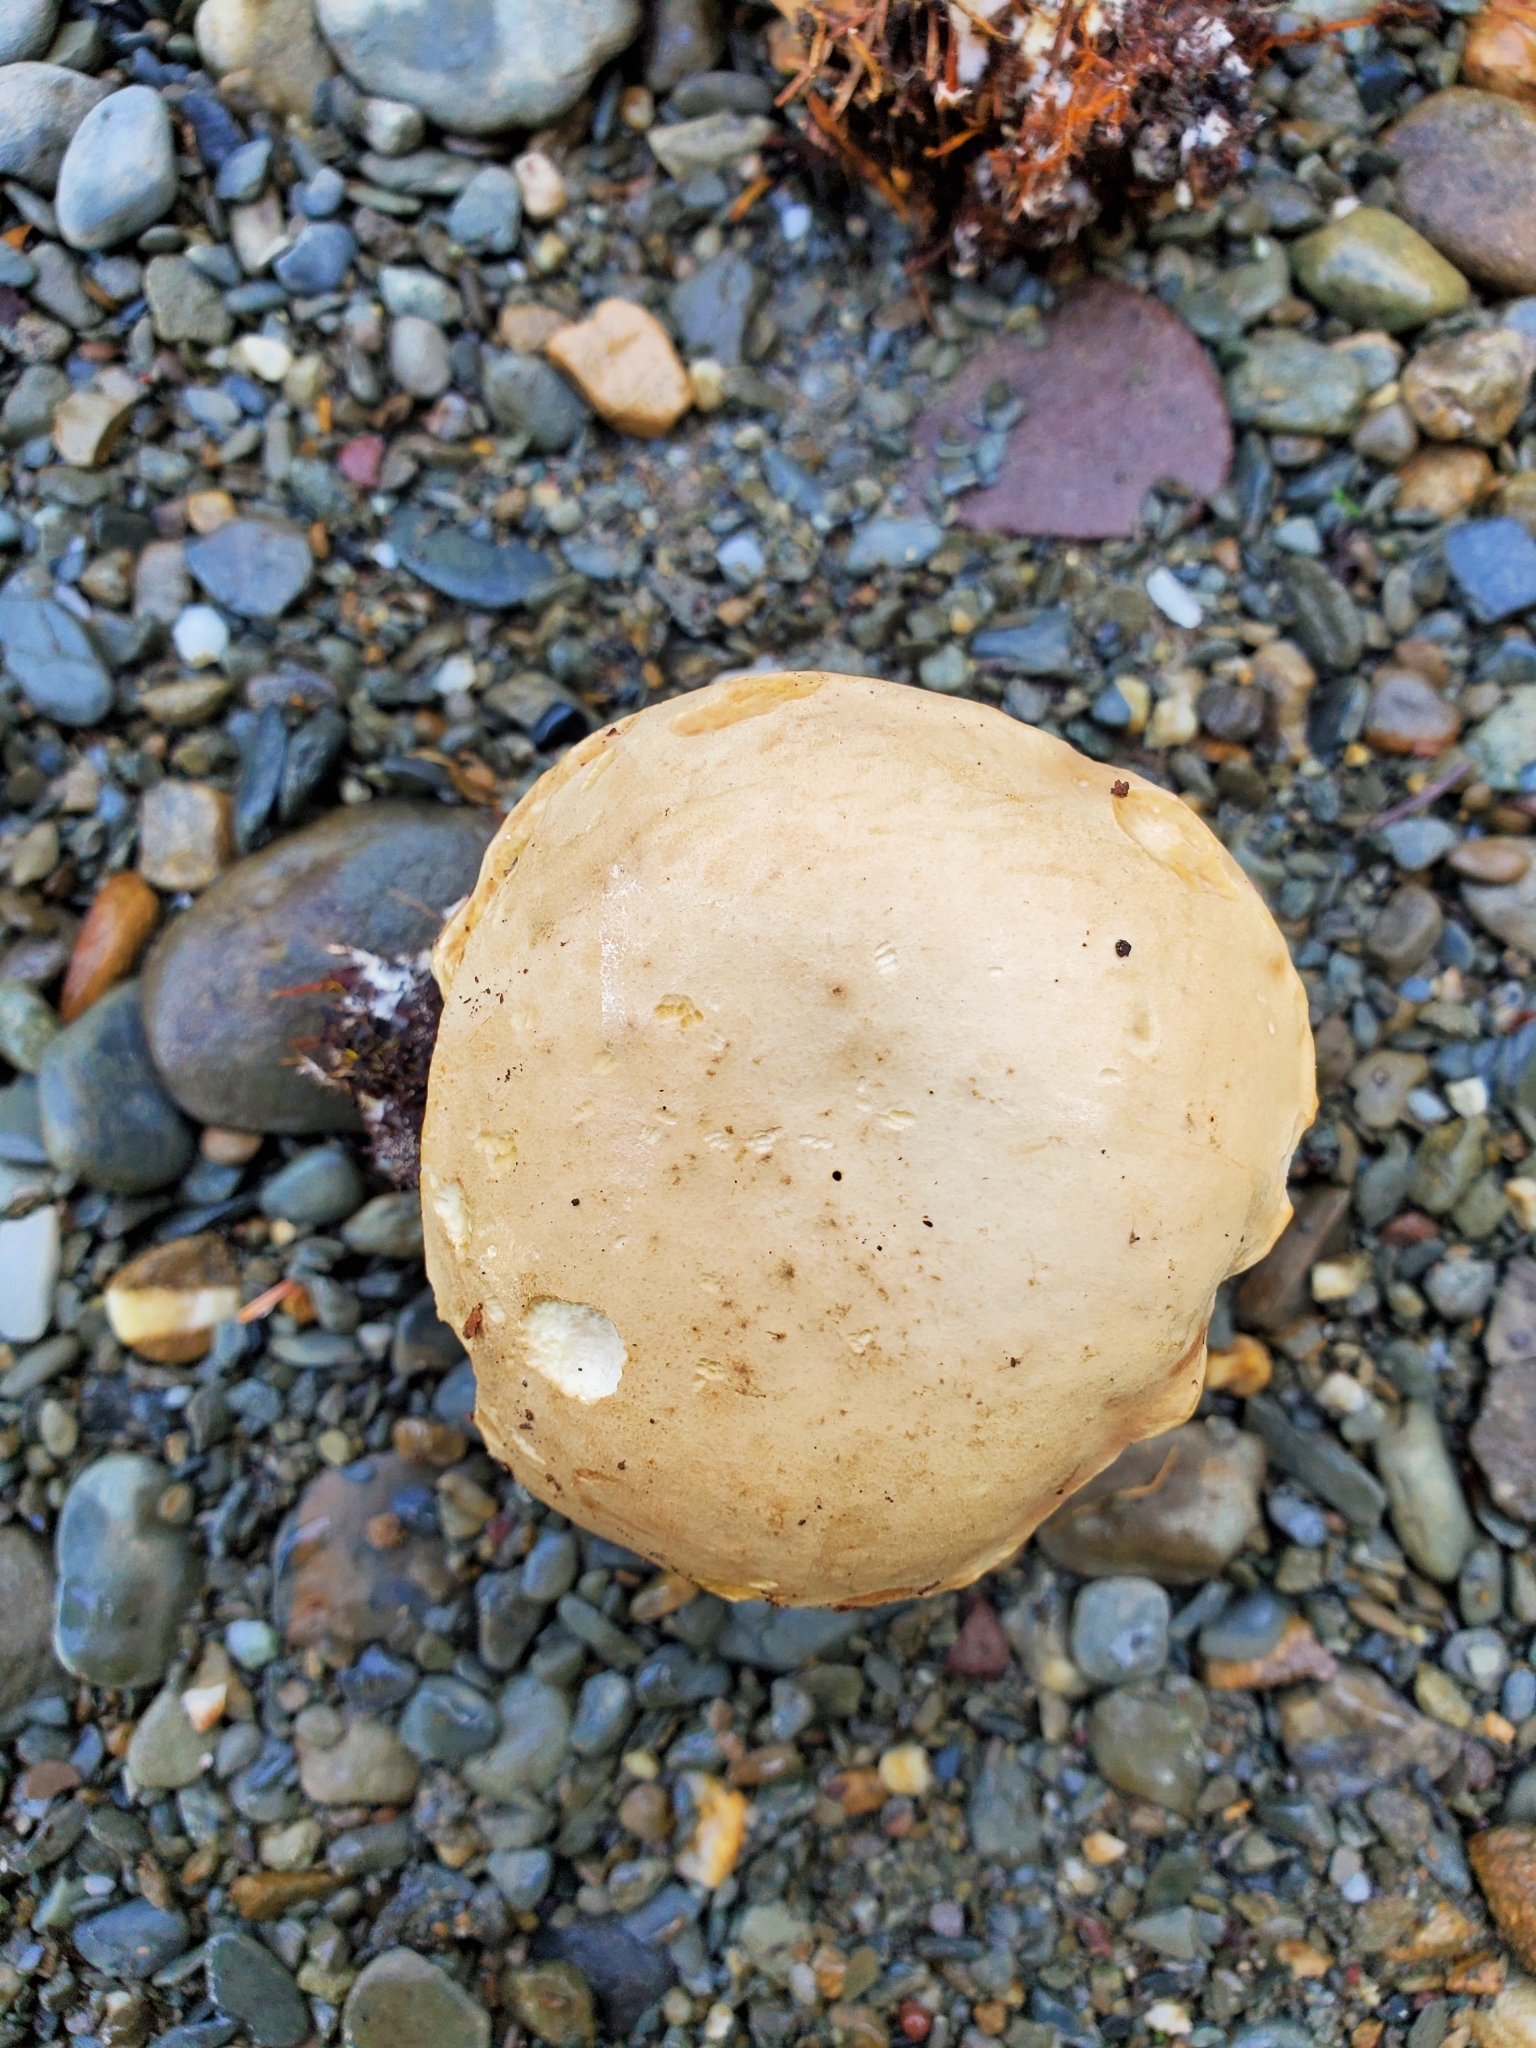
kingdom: Fungi
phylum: Basidiomycota
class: Agaricomycetes
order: Boletales
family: Boletaceae
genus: Tylopilus
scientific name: Tylopilus felleus
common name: Bitter bolete
